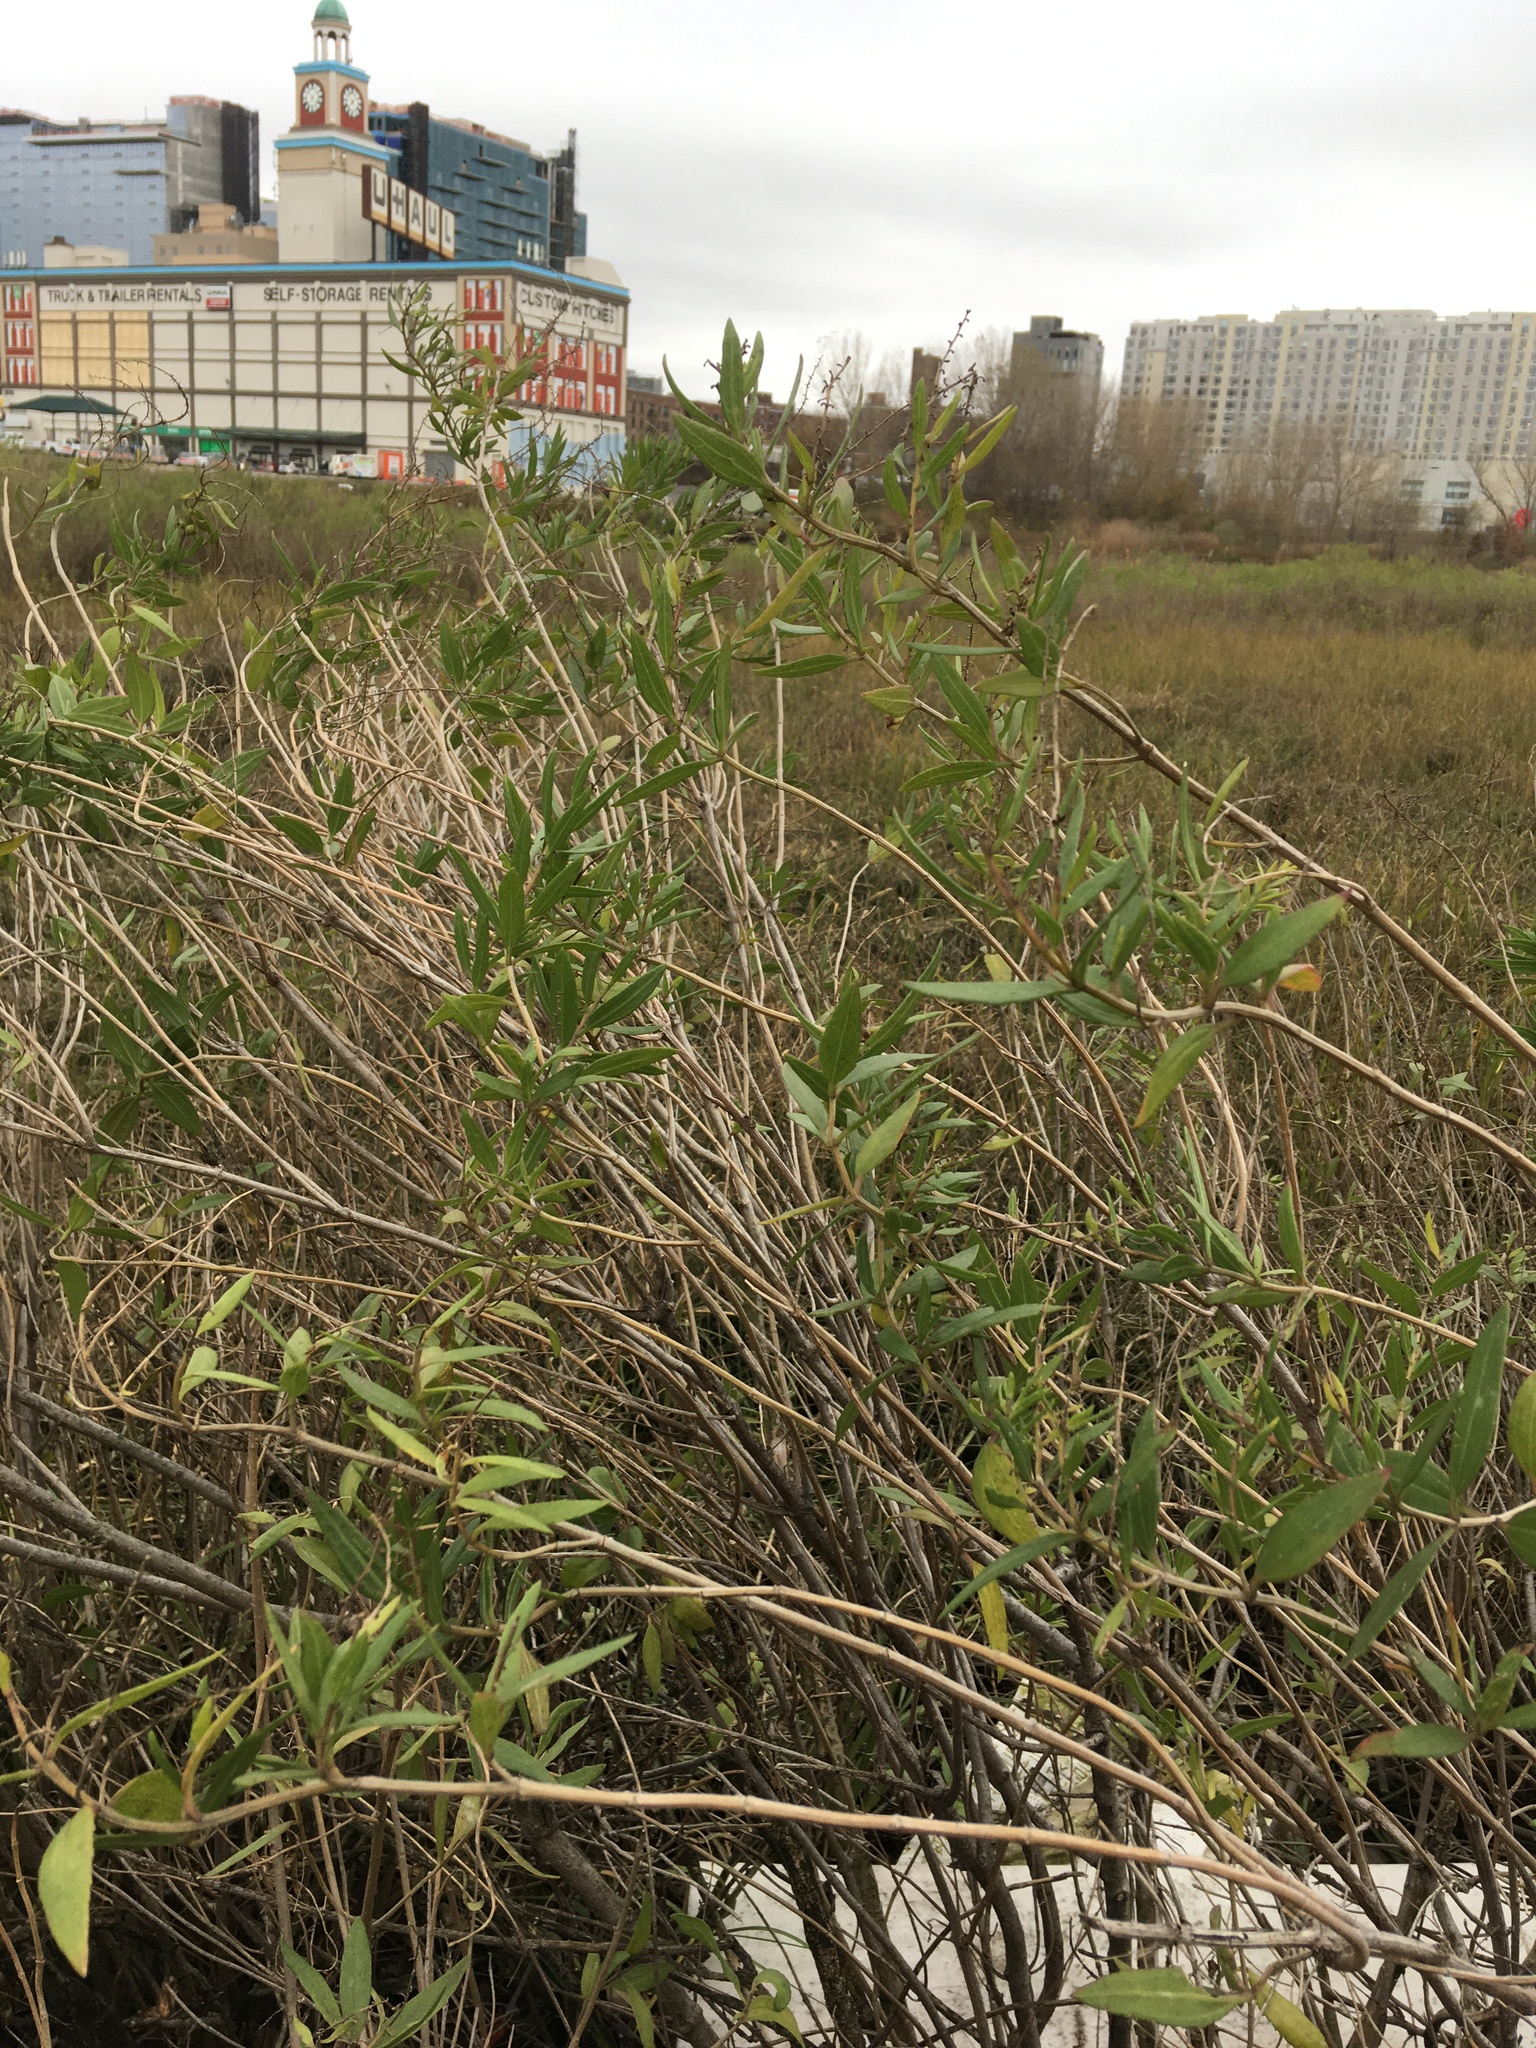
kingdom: Plantae
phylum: Tracheophyta
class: Magnoliopsida
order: Asterales
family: Asteraceae
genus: Iva
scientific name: Iva frutescens
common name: Big-leaved marsh-elder
